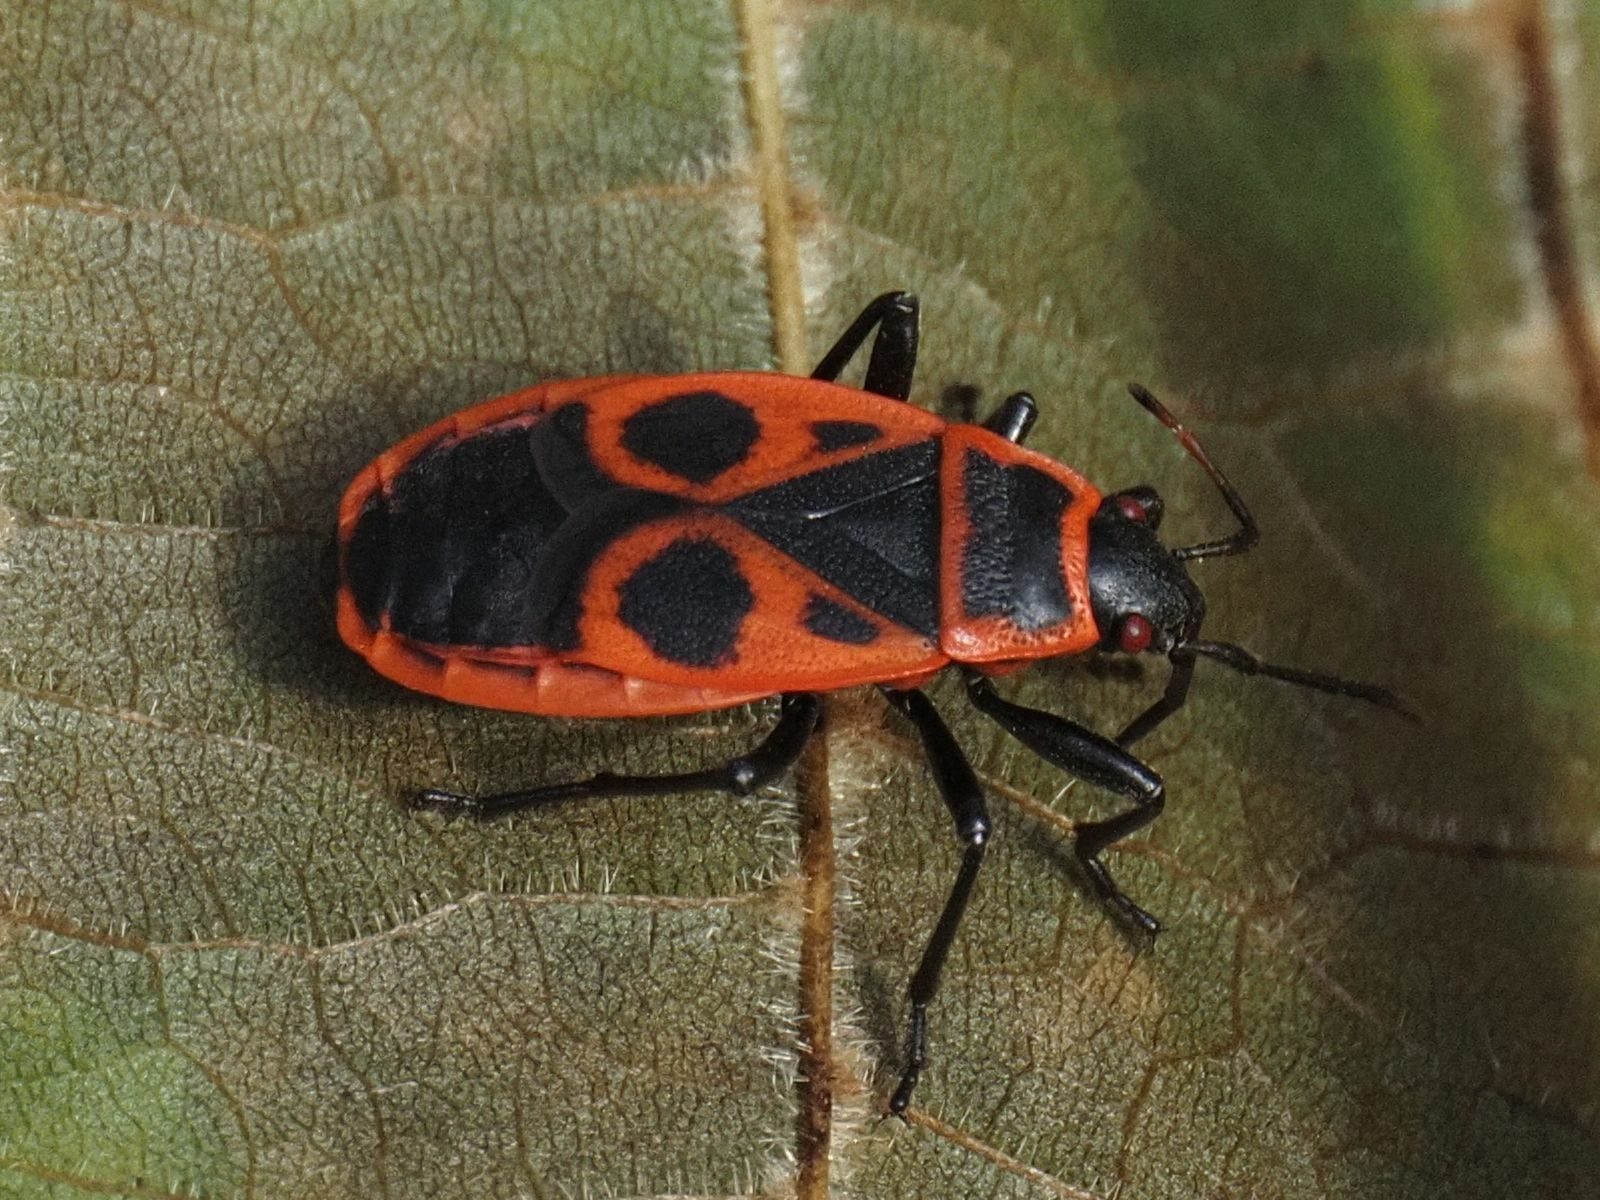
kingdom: Animalia
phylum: Arthropoda
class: Insecta
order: Hemiptera
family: Pyrrhocoridae
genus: Pyrrhocoris
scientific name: Pyrrhocoris apterus
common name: Firebug
